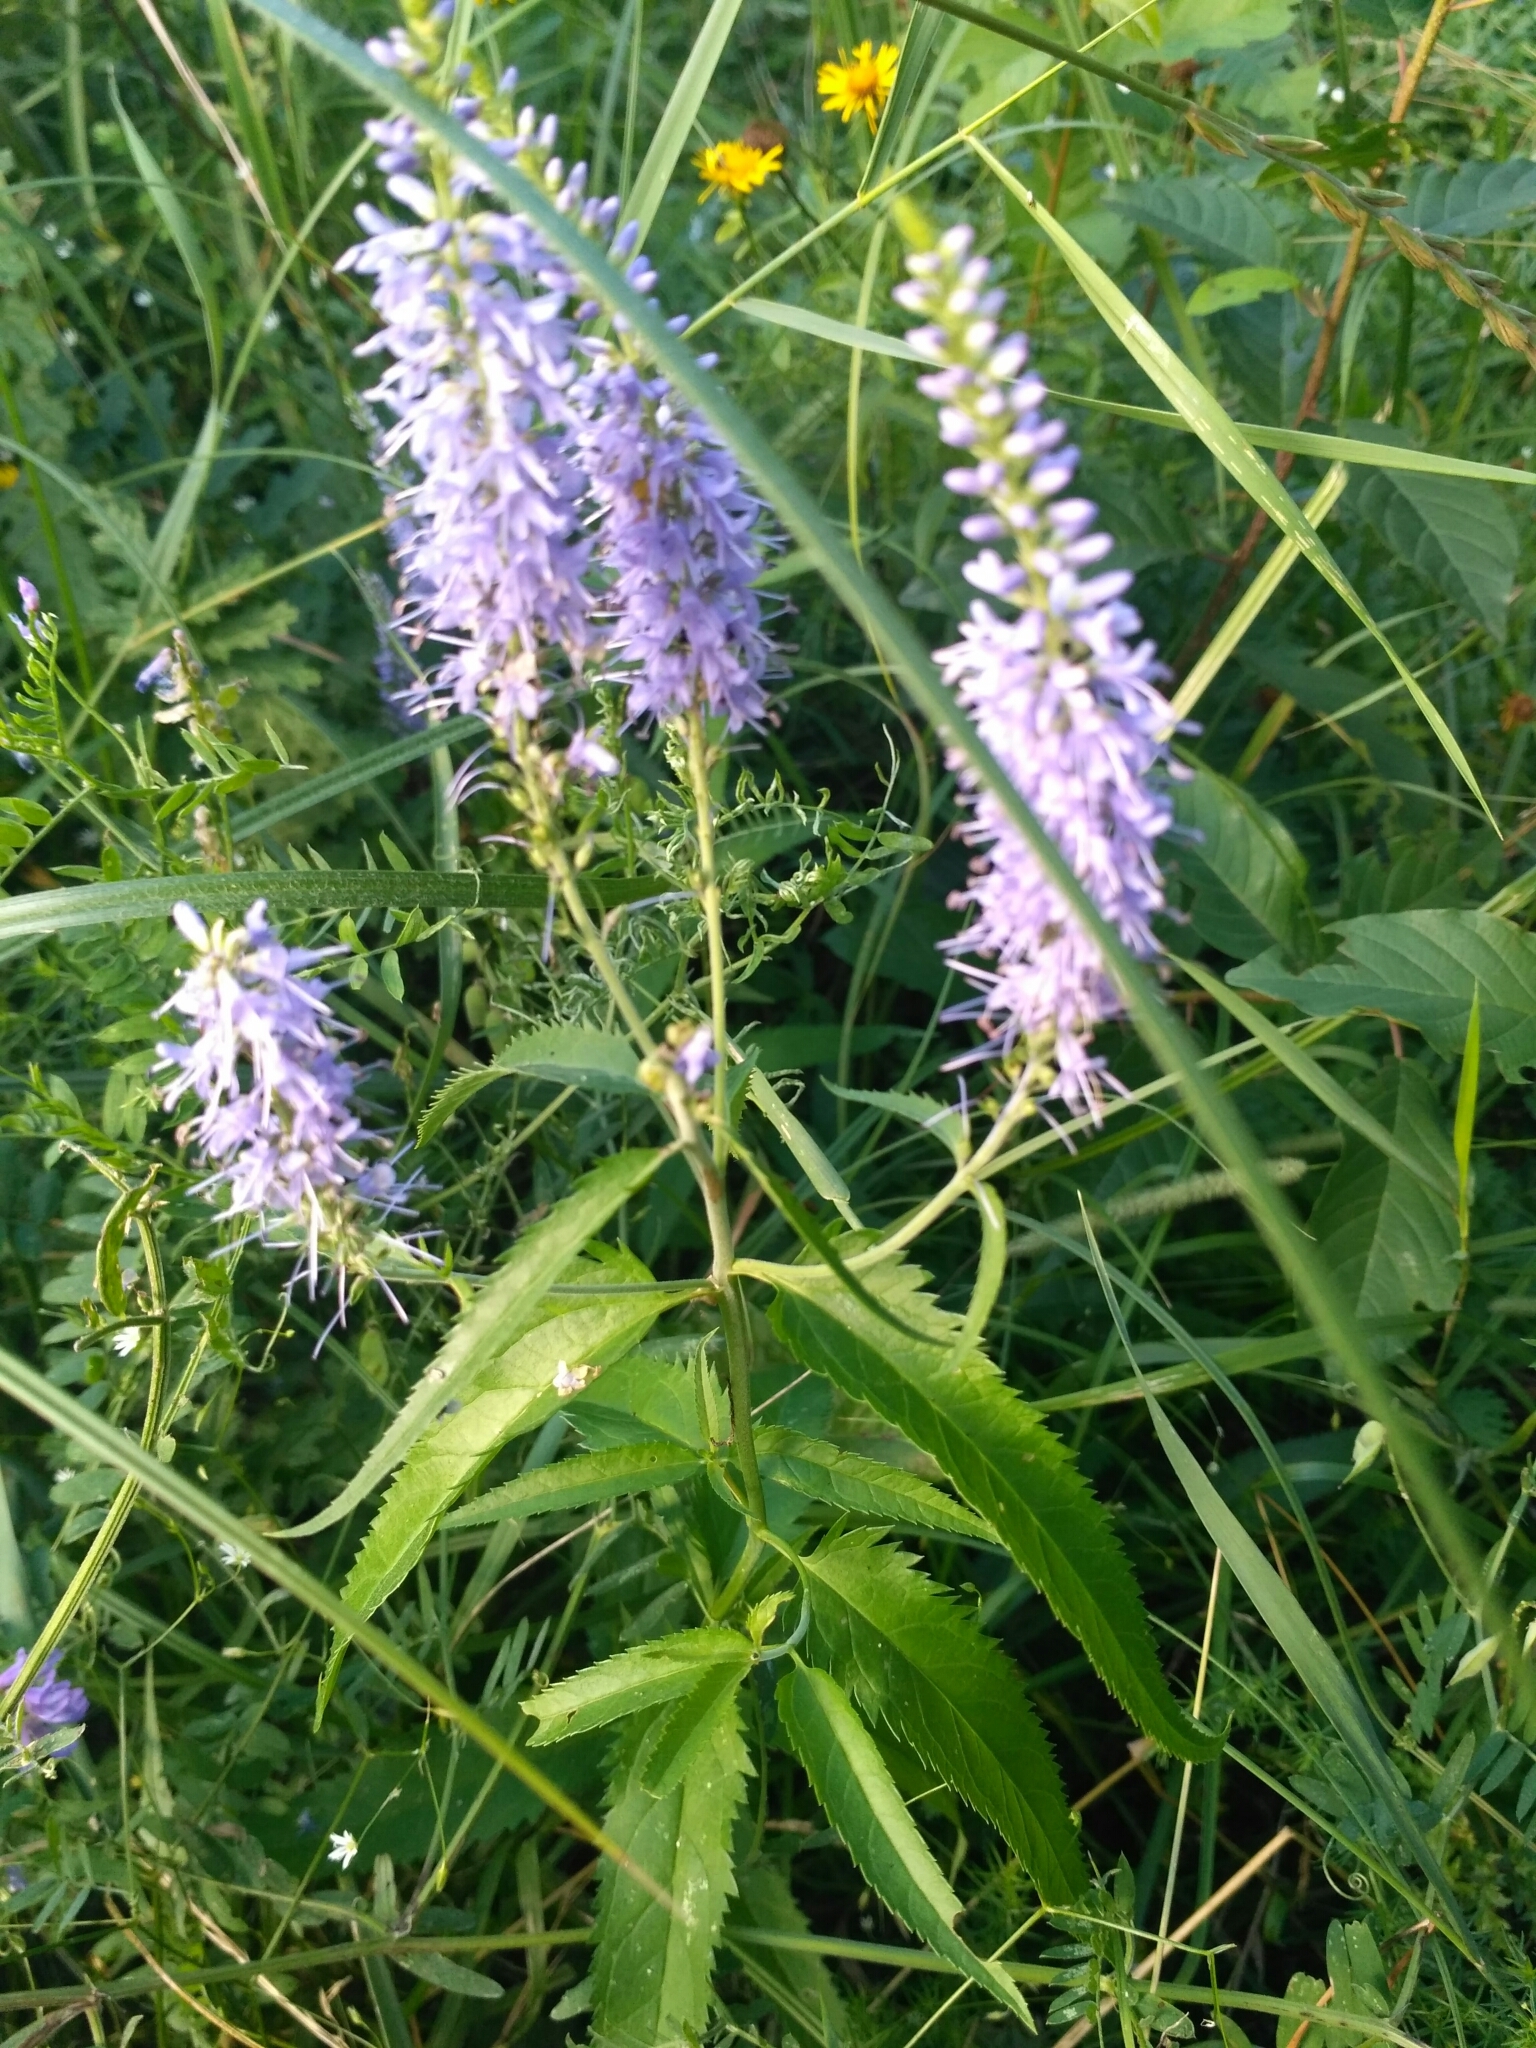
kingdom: Plantae
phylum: Tracheophyta
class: Magnoliopsida
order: Lamiales
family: Plantaginaceae
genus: Veronica
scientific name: Veronica longifolia
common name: Garden speedwell
